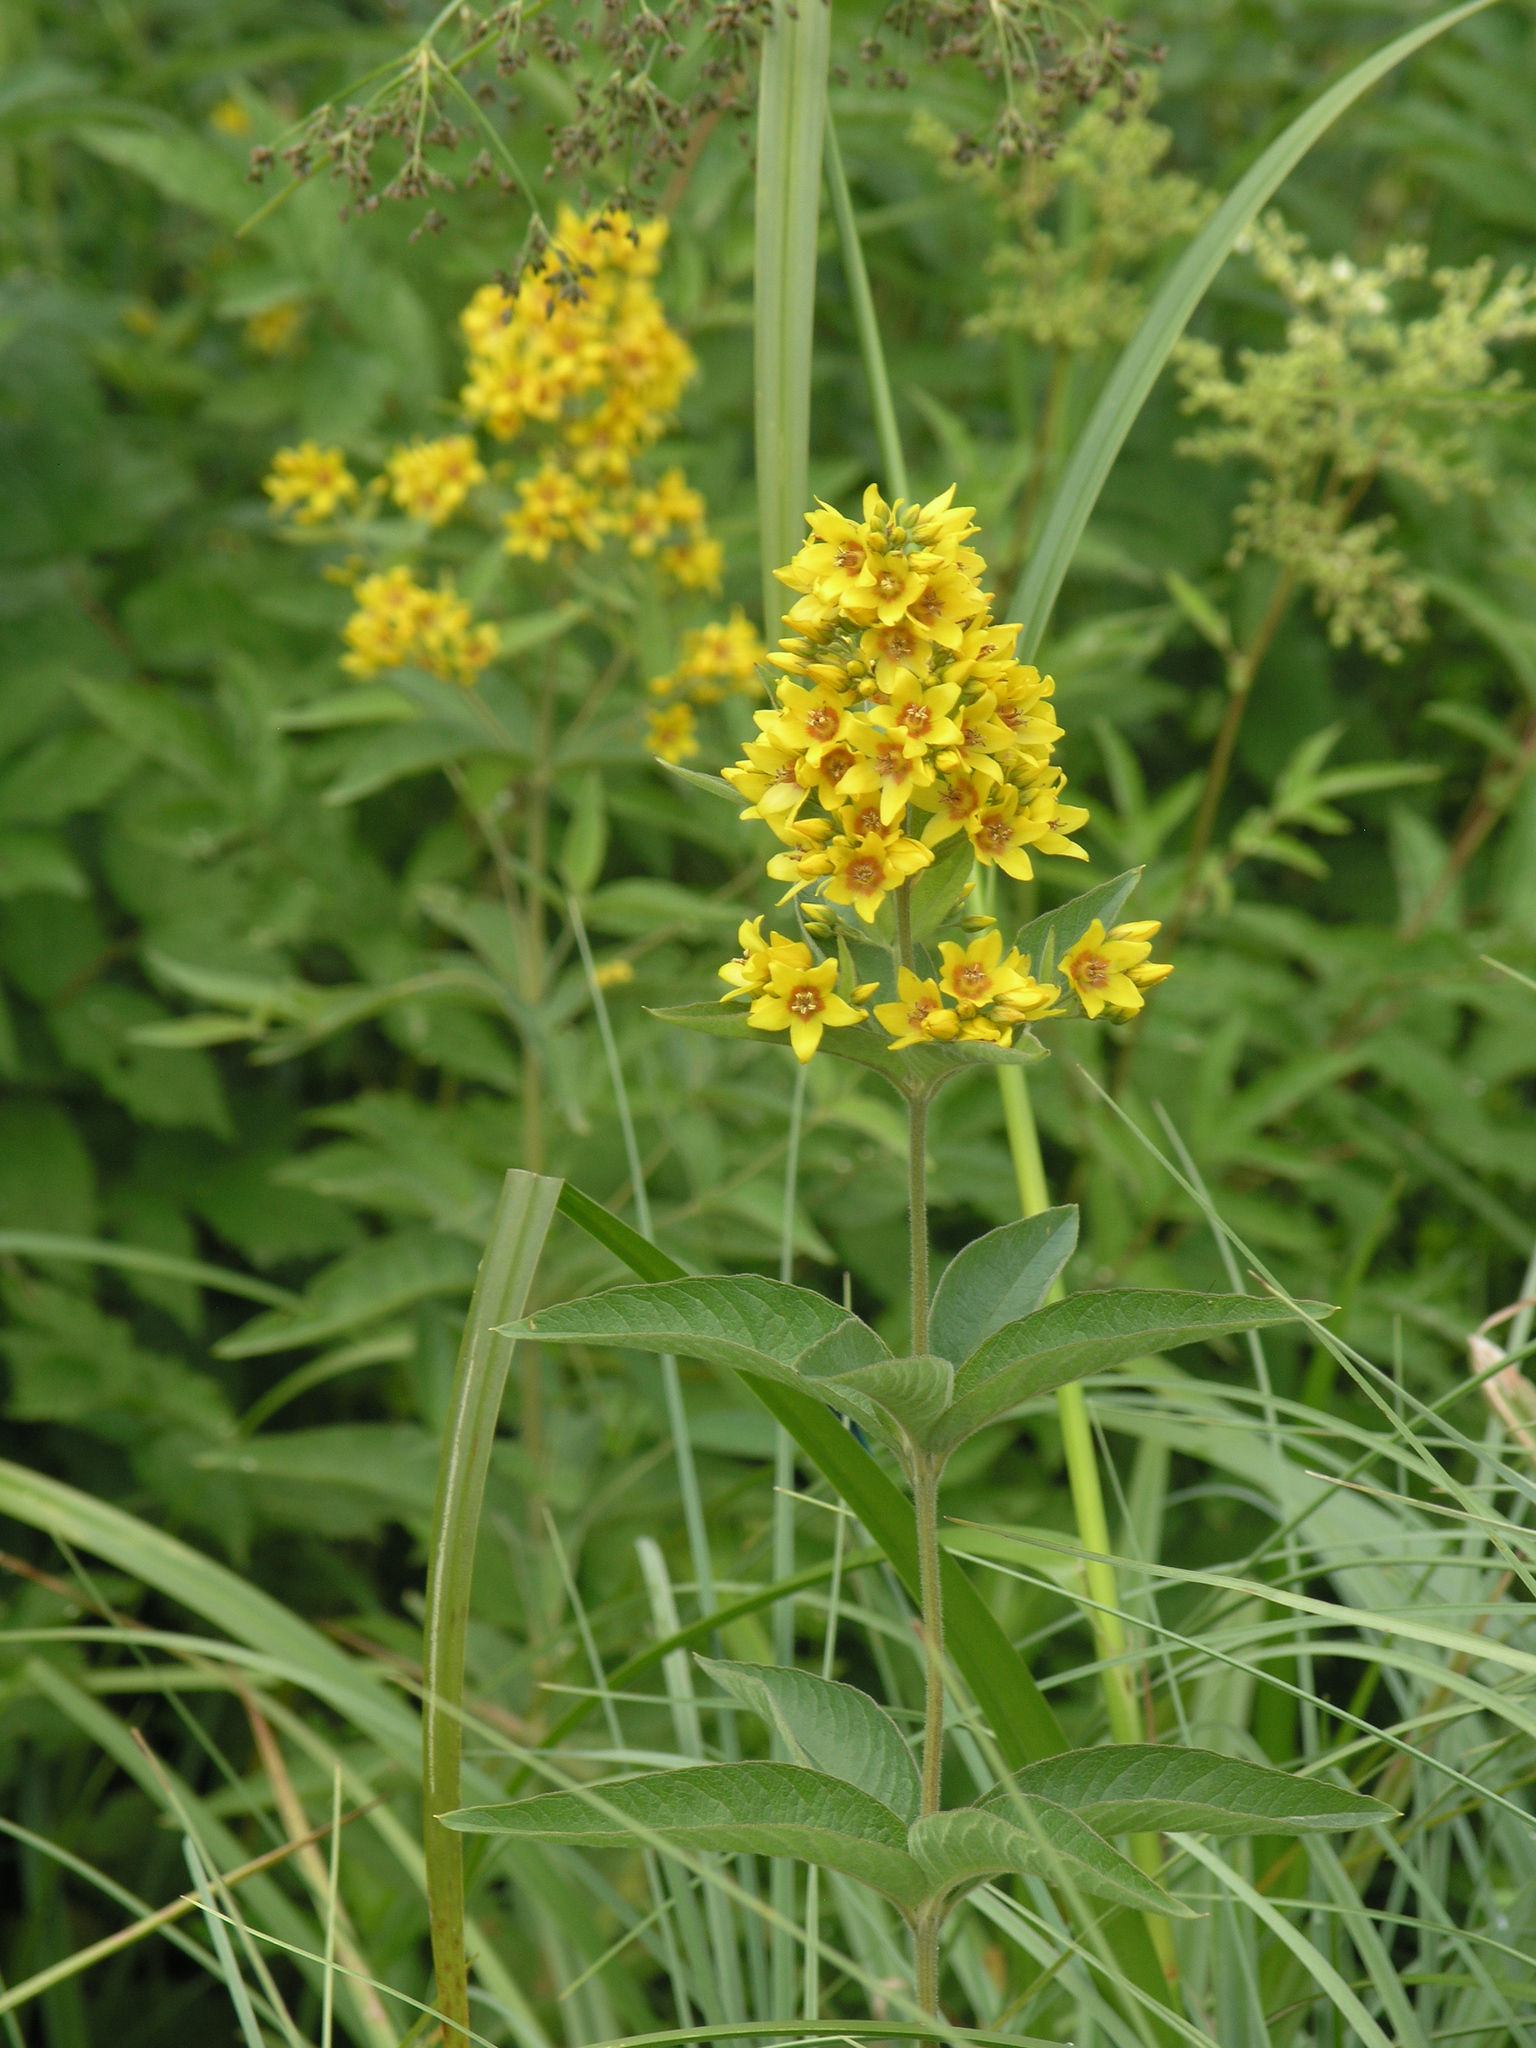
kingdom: Plantae
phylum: Tracheophyta
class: Magnoliopsida
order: Ericales
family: Primulaceae
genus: Lysimachia
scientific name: Lysimachia vulgaris
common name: Yellow loosestrife
